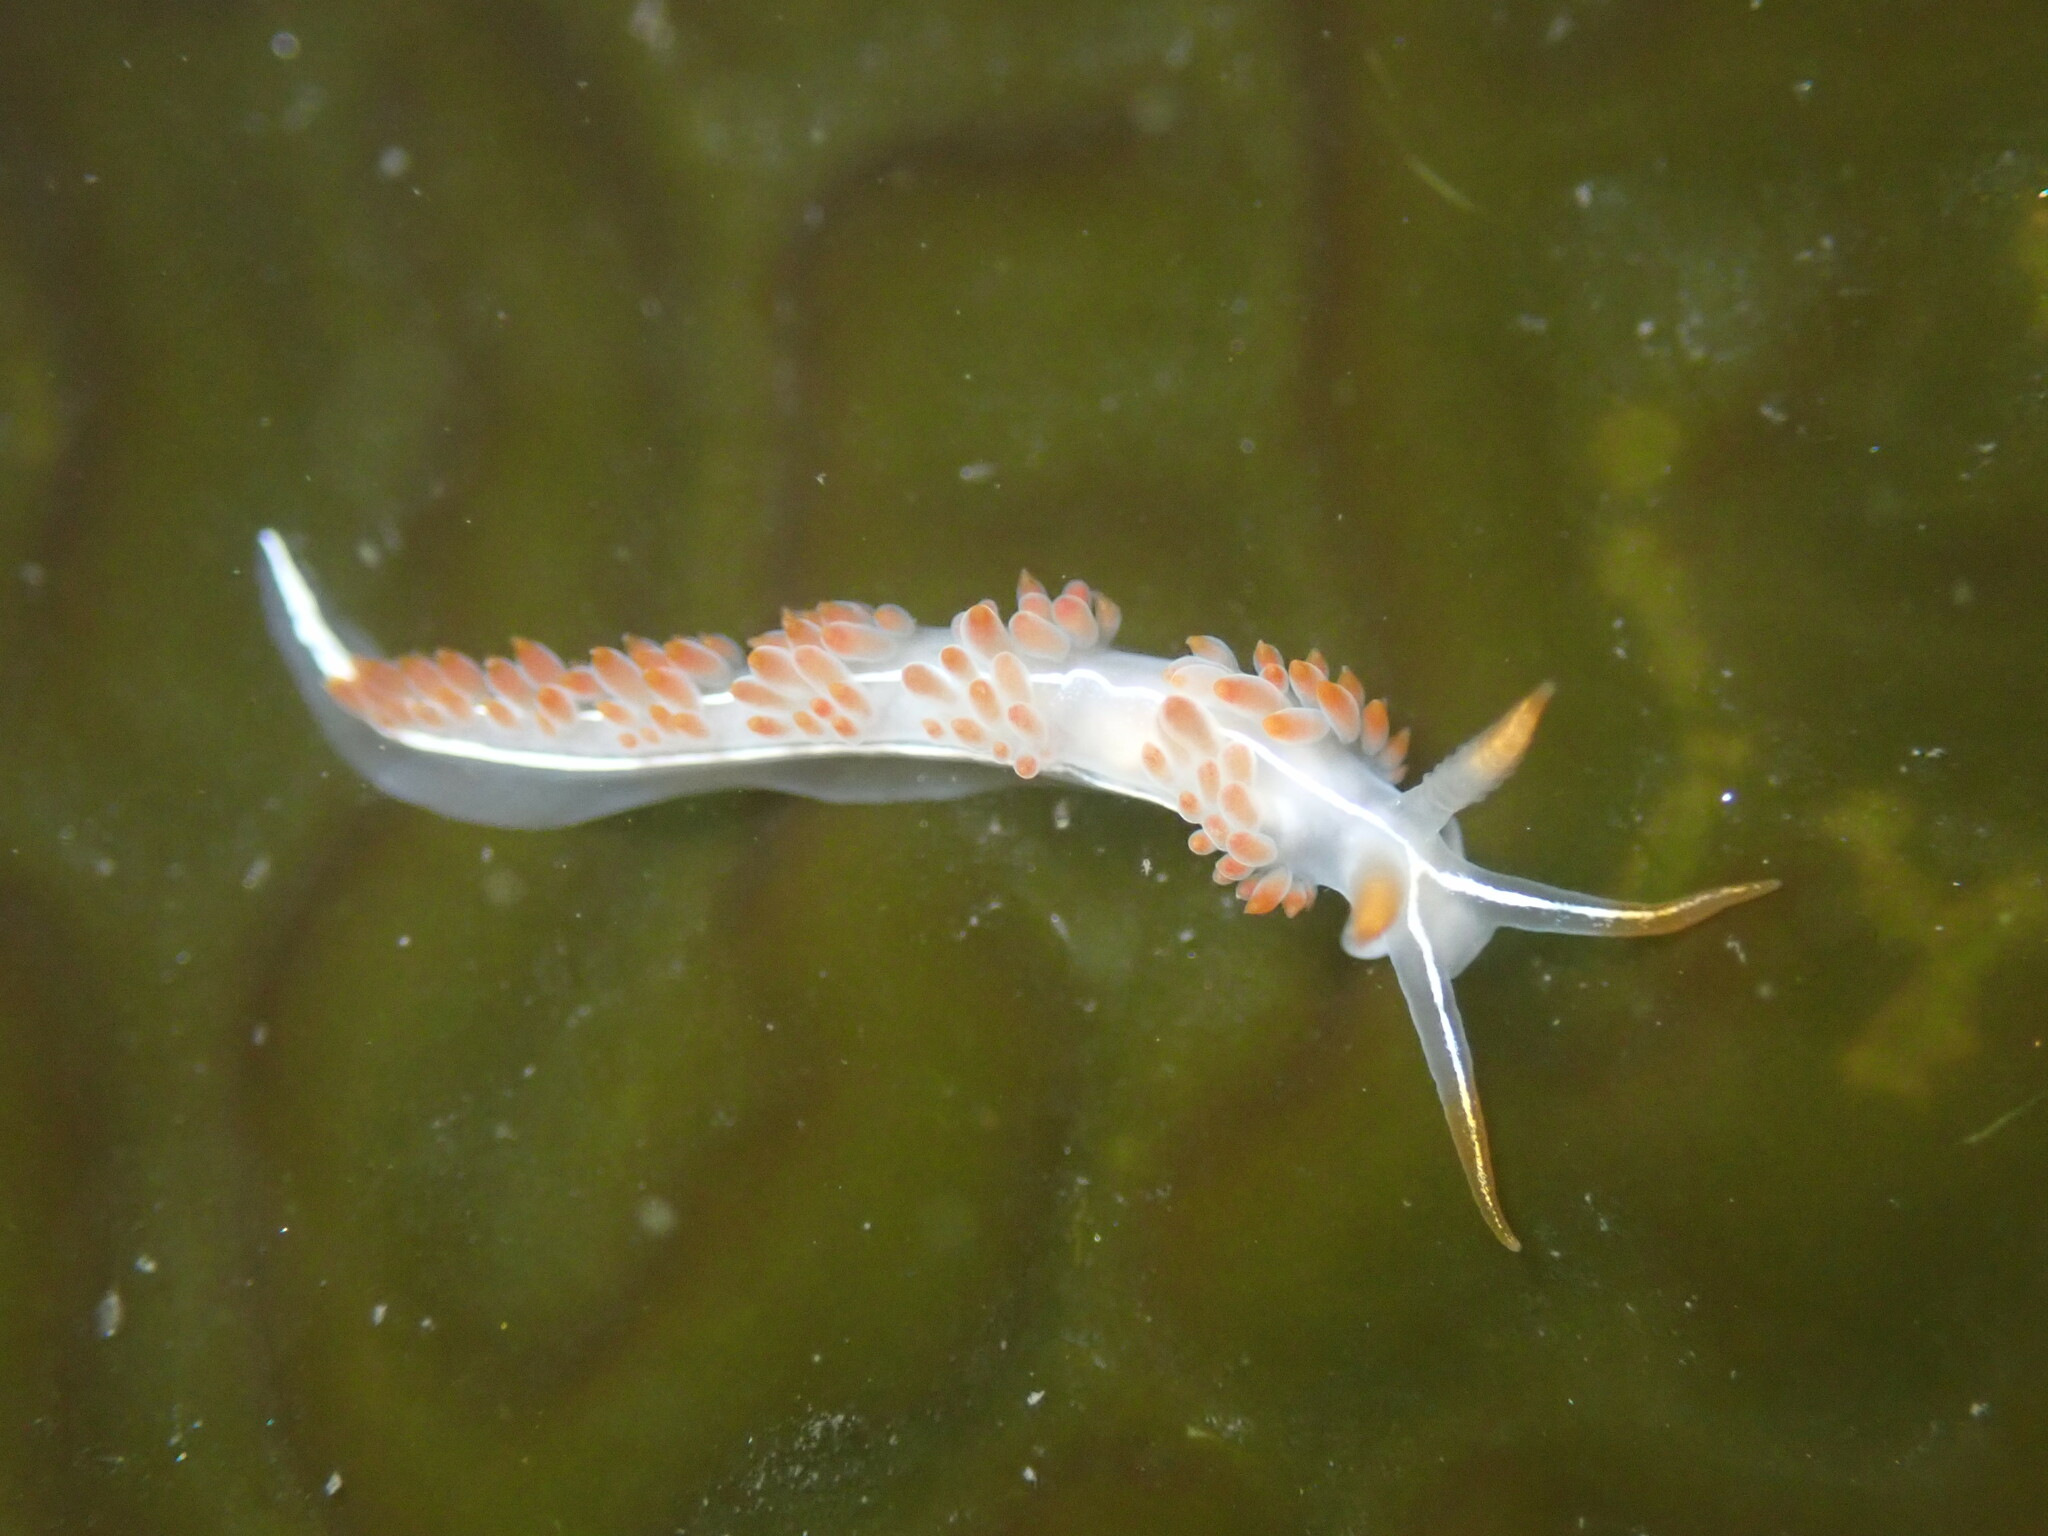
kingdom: Animalia
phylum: Mollusca
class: Gastropoda
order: Nudibranchia
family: Coryphellidae
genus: Coryphella
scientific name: Coryphella trilineata
